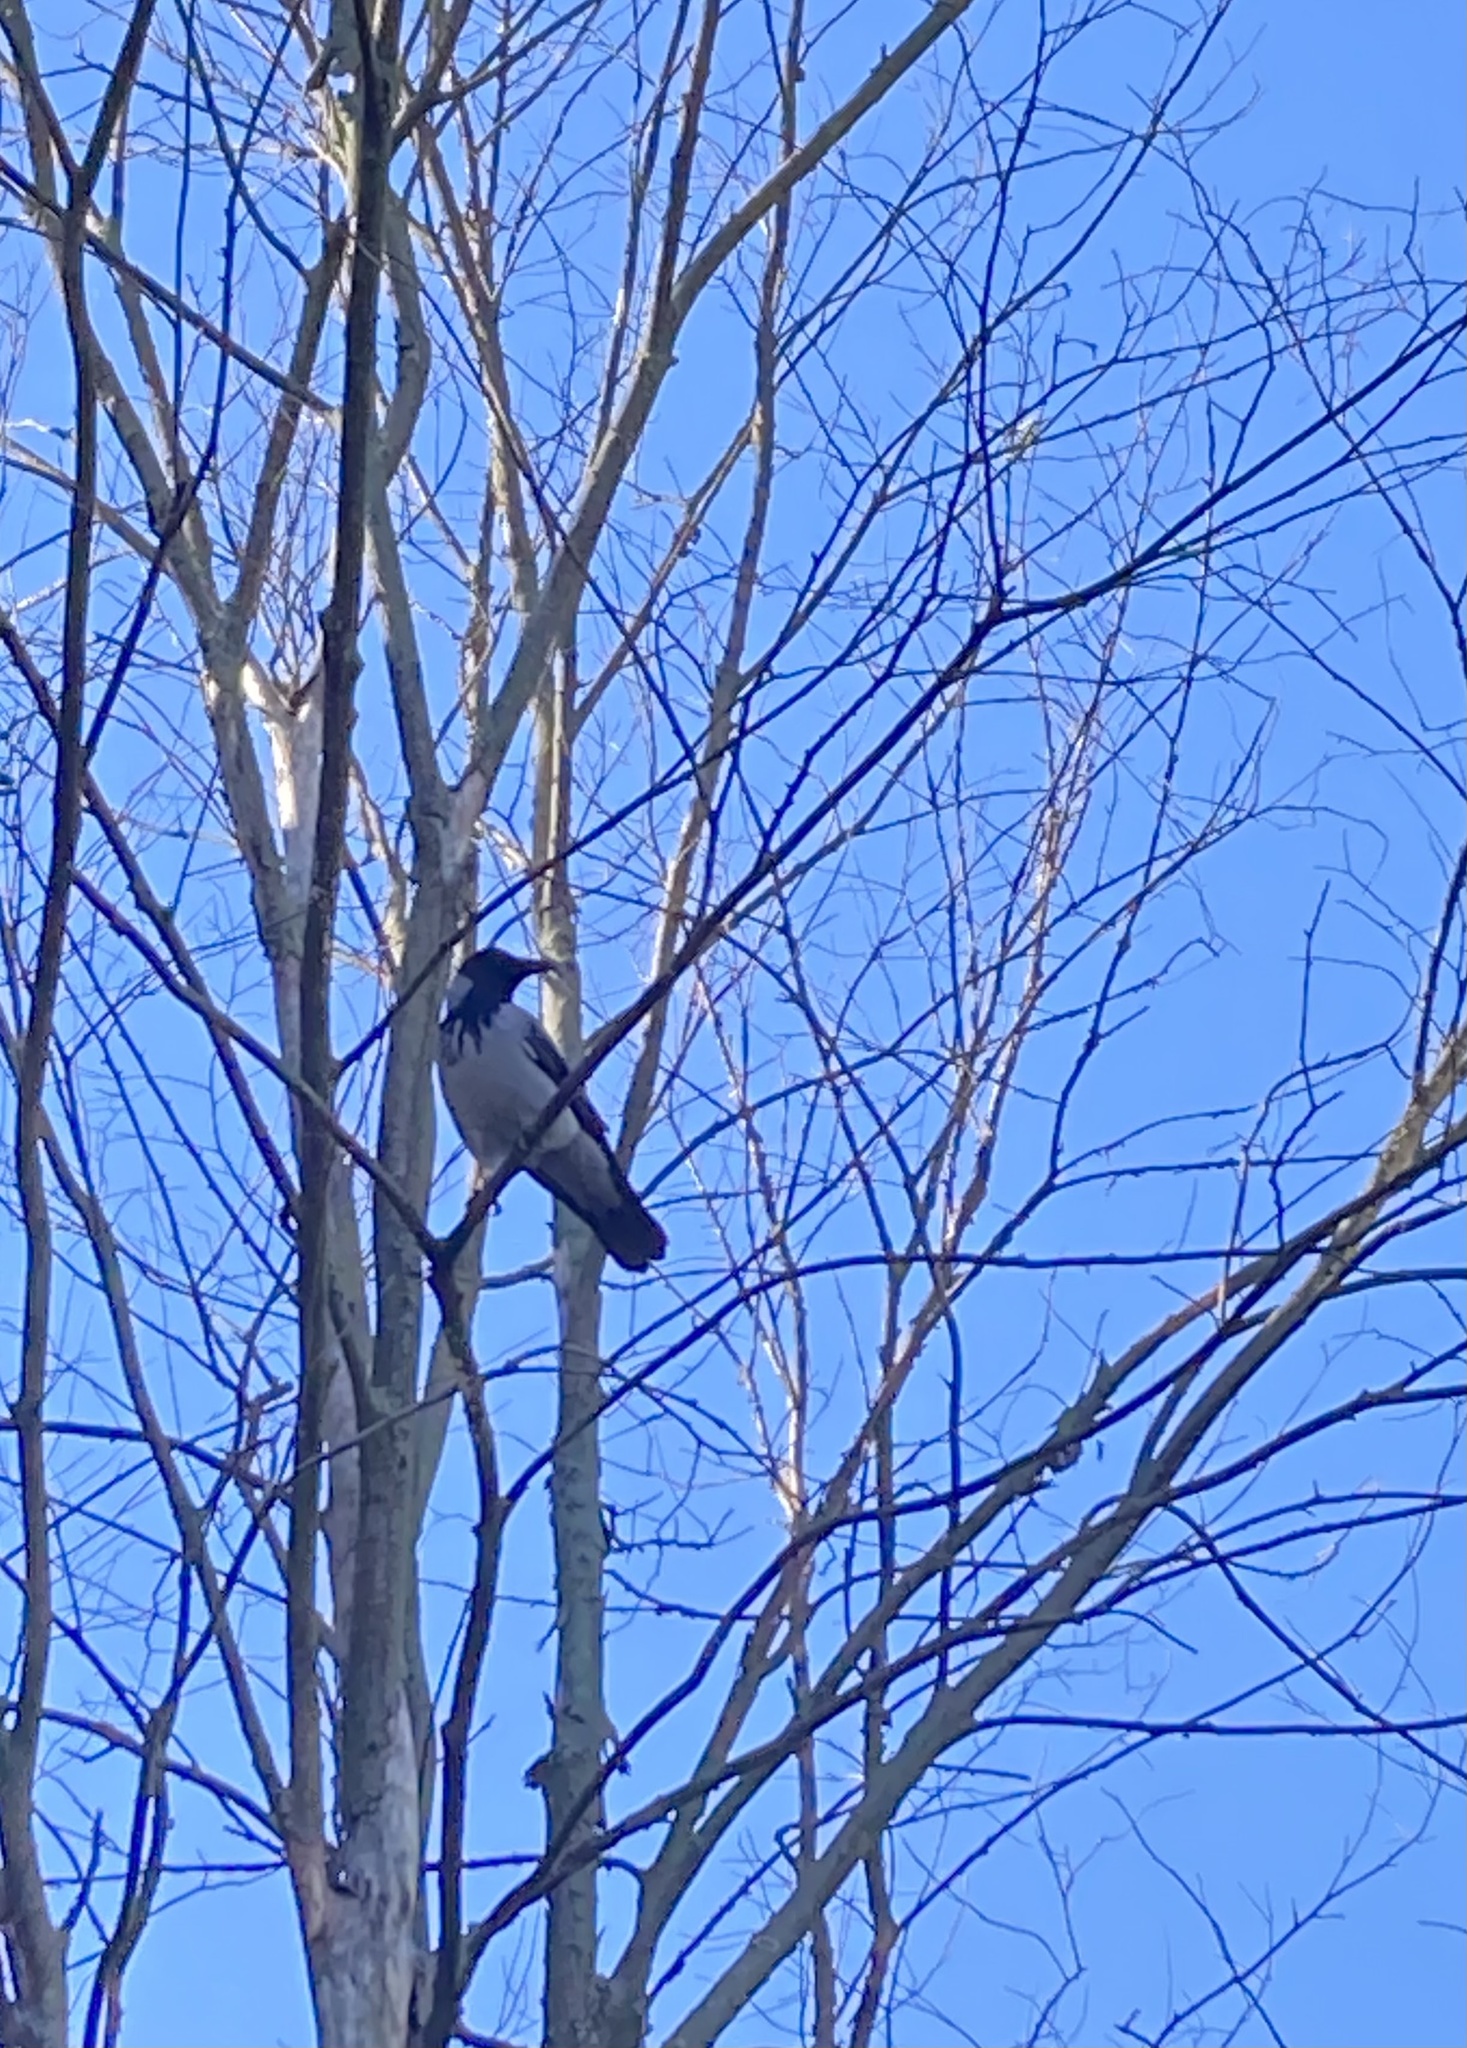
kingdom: Animalia
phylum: Chordata
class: Aves
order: Passeriformes
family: Corvidae
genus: Corvus
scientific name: Corvus cornix
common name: Hooded crow
